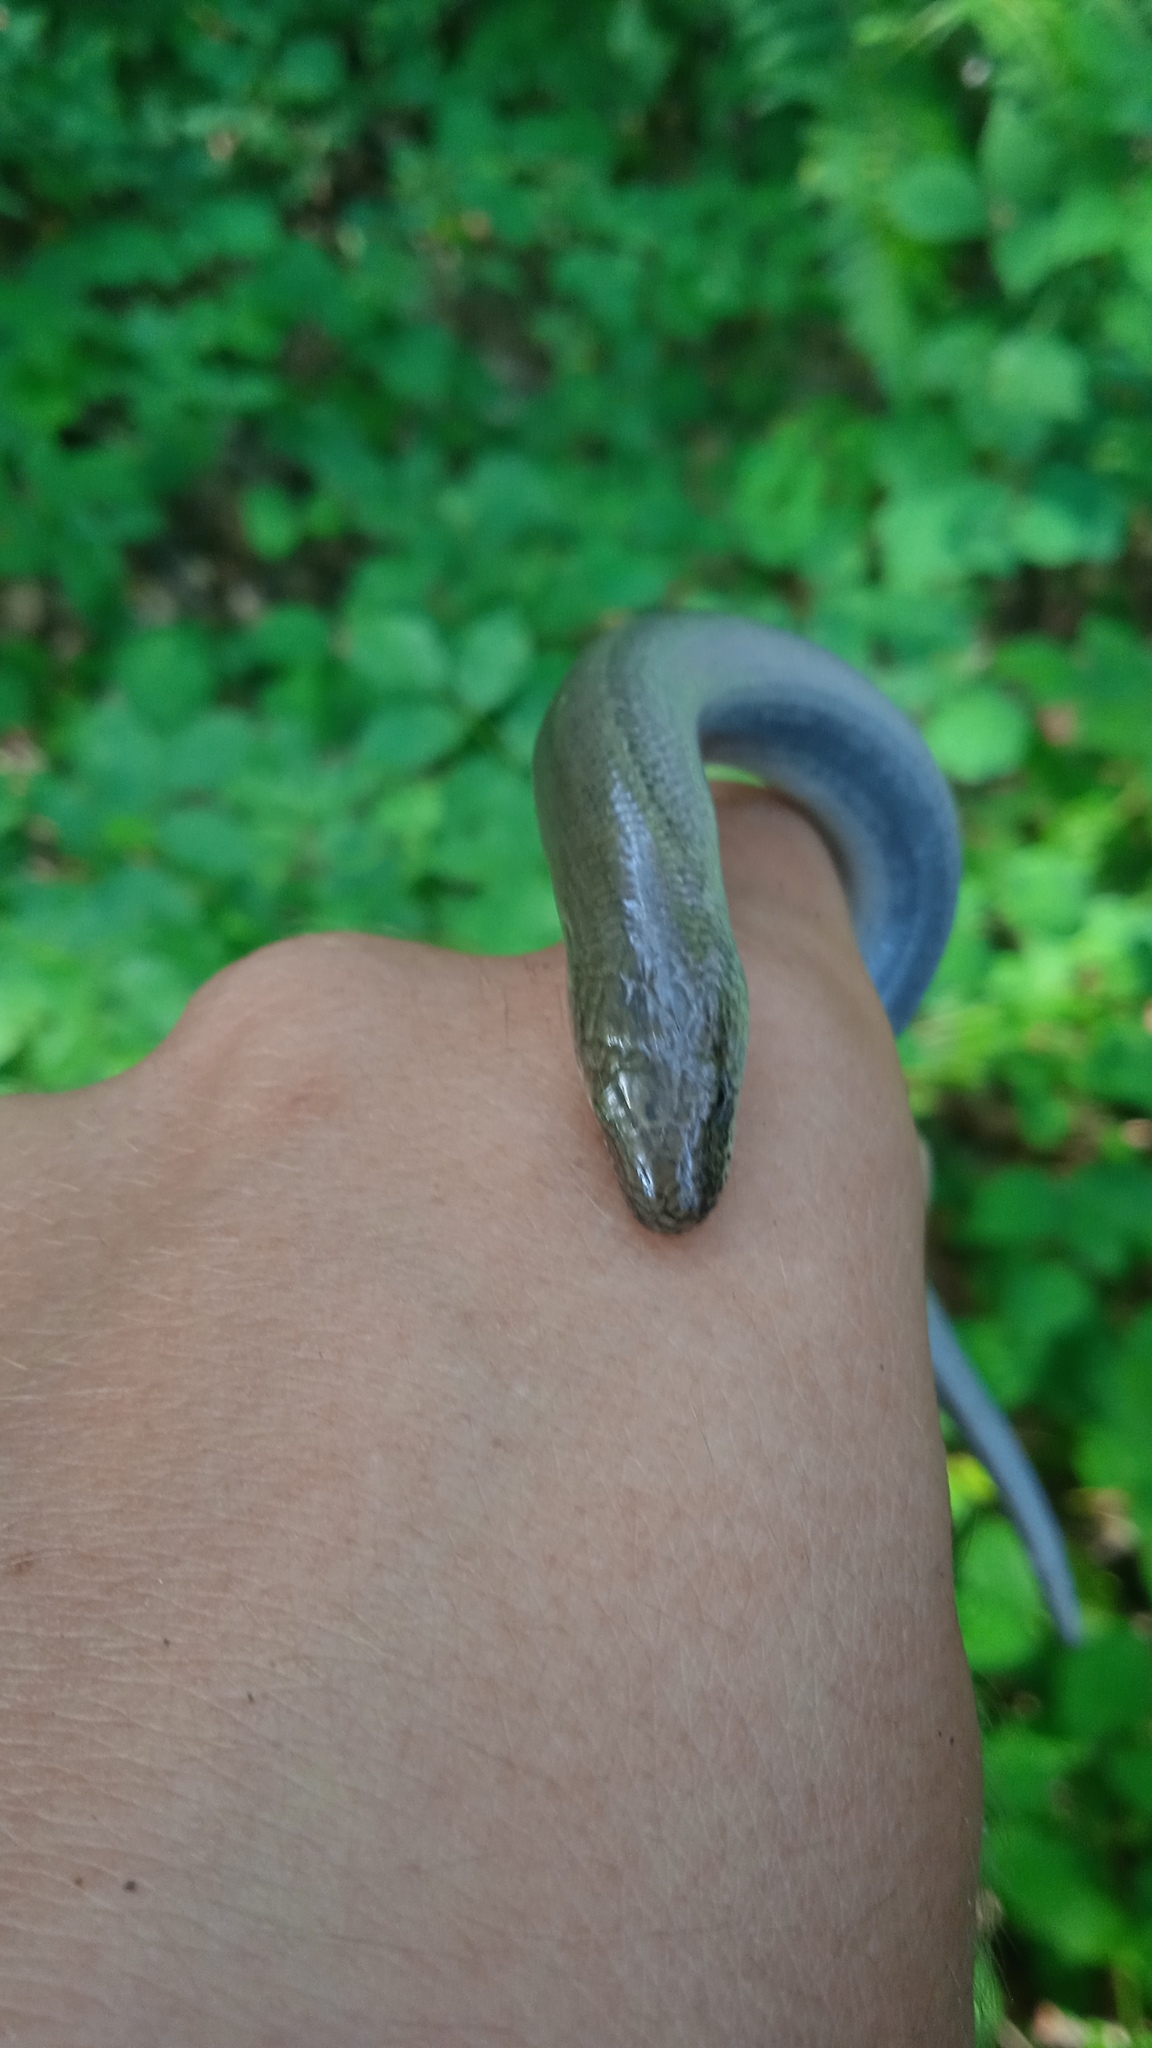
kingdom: Animalia
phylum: Chordata
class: Squamata
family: Anguidae
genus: Anguis
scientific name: Anguis fragilis
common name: Slow worm
